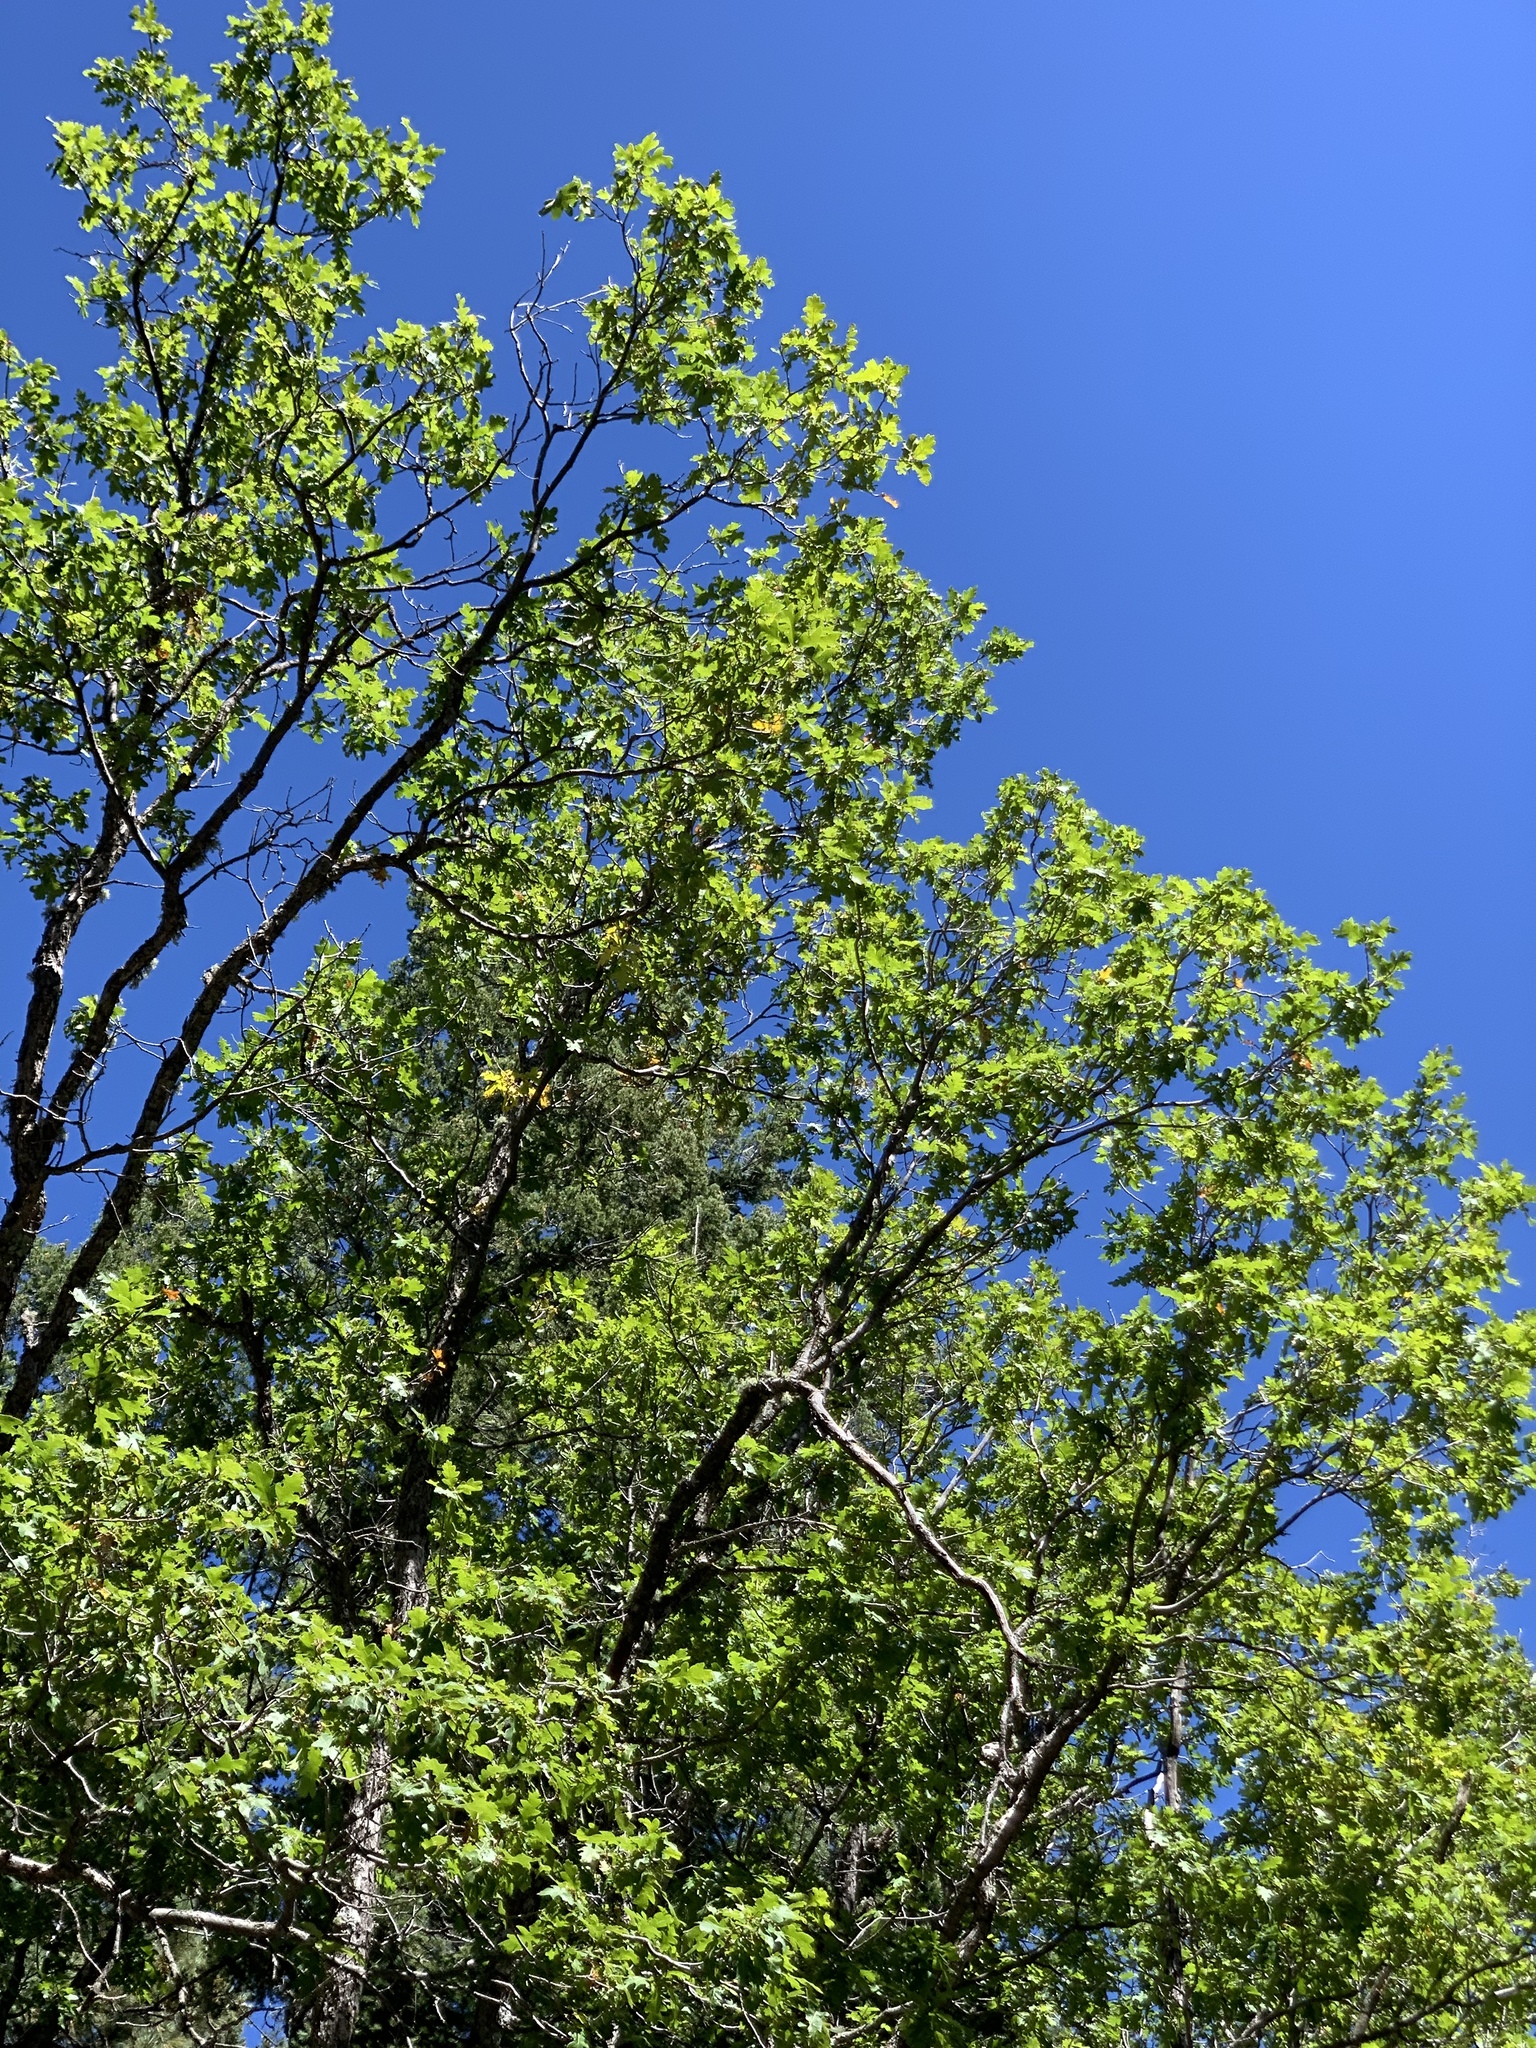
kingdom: Plantae
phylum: Tracheophyta
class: Magnoliopsida
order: Fagales
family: Fagaceae
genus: Quercus
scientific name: Quercus gambelii
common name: Gambel oak
